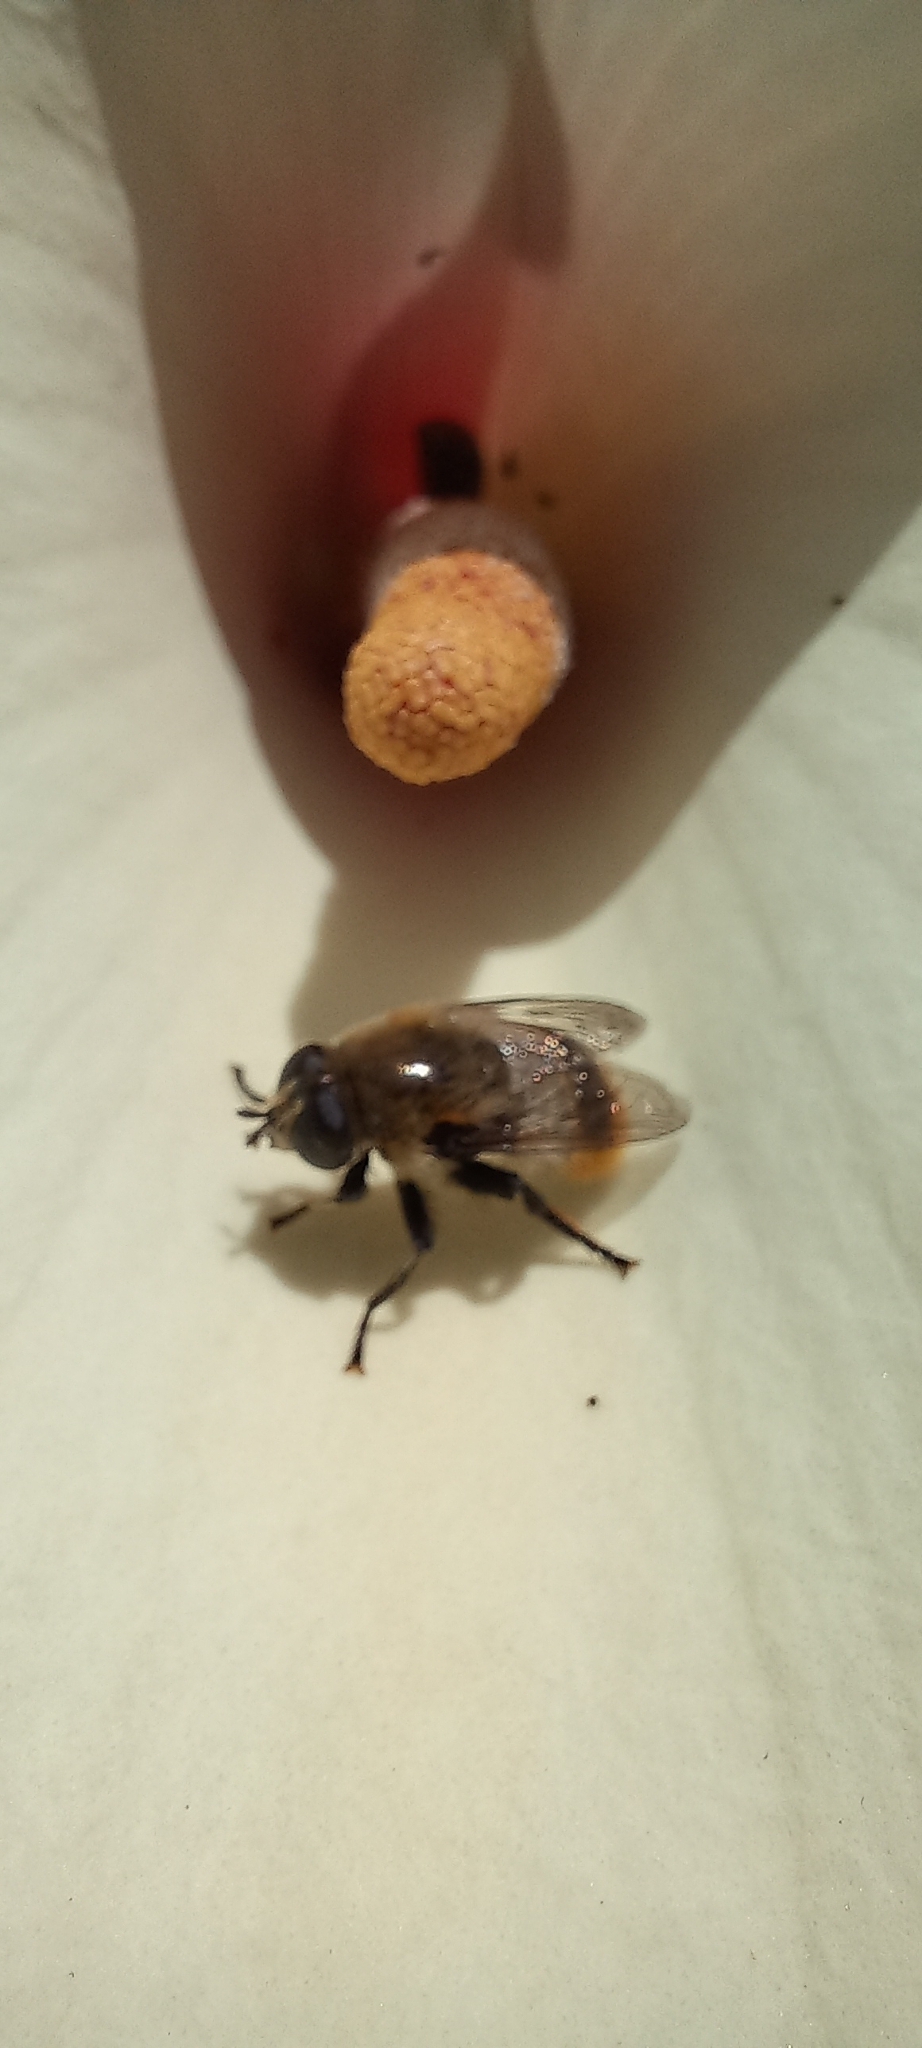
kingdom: Animalia
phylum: Arthropoda
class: Insecta
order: Diptera
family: Syrphidae
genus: Merodon
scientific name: Merodon equestris
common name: Greater bulb-fly
